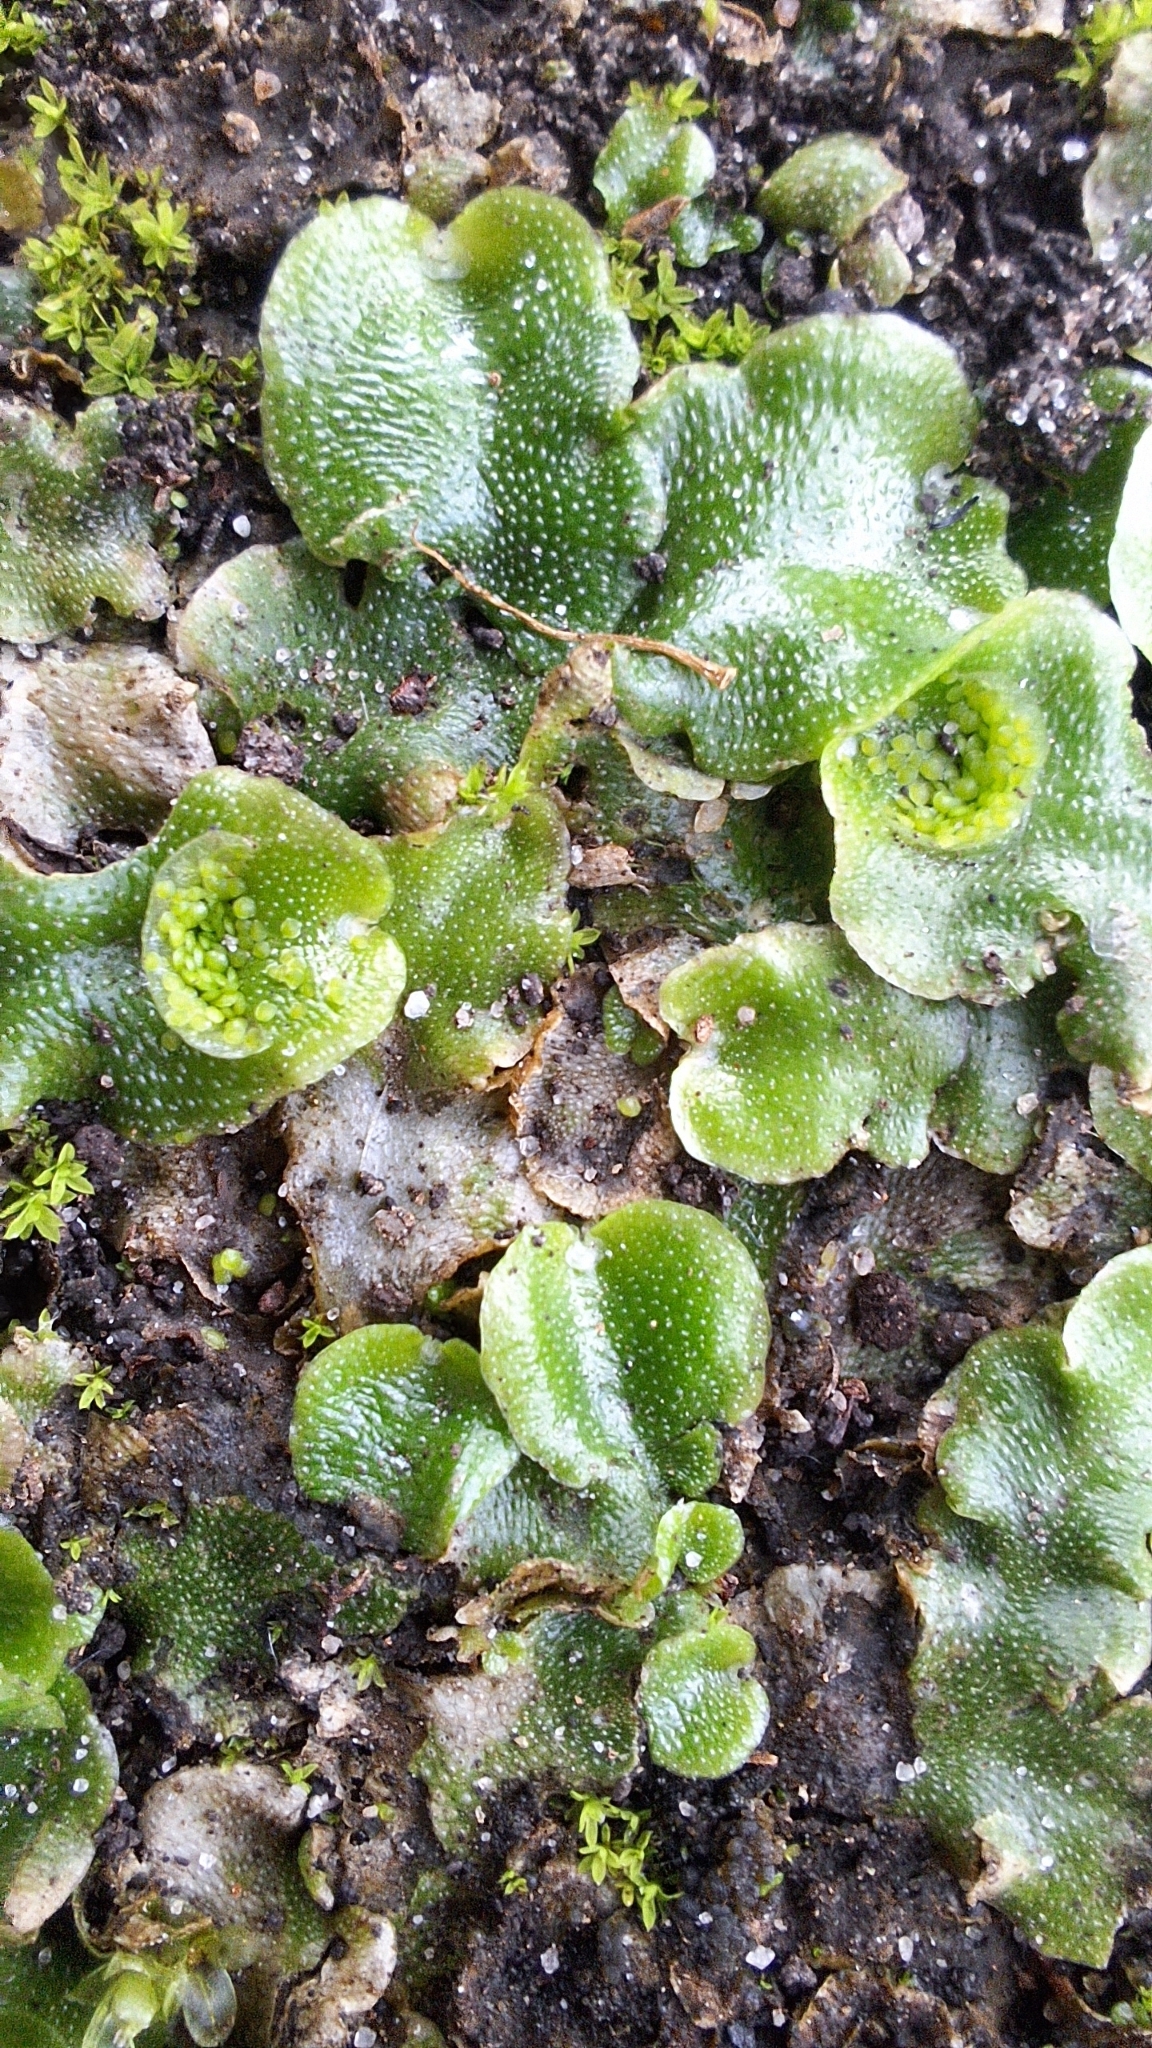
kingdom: Plantae
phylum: Marchantiophyta
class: Marchantiopsida
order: Lunulariales
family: Lunulariaceae
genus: Lunularia
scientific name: Lunularia cruciata
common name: Crescent-cup liverwort
